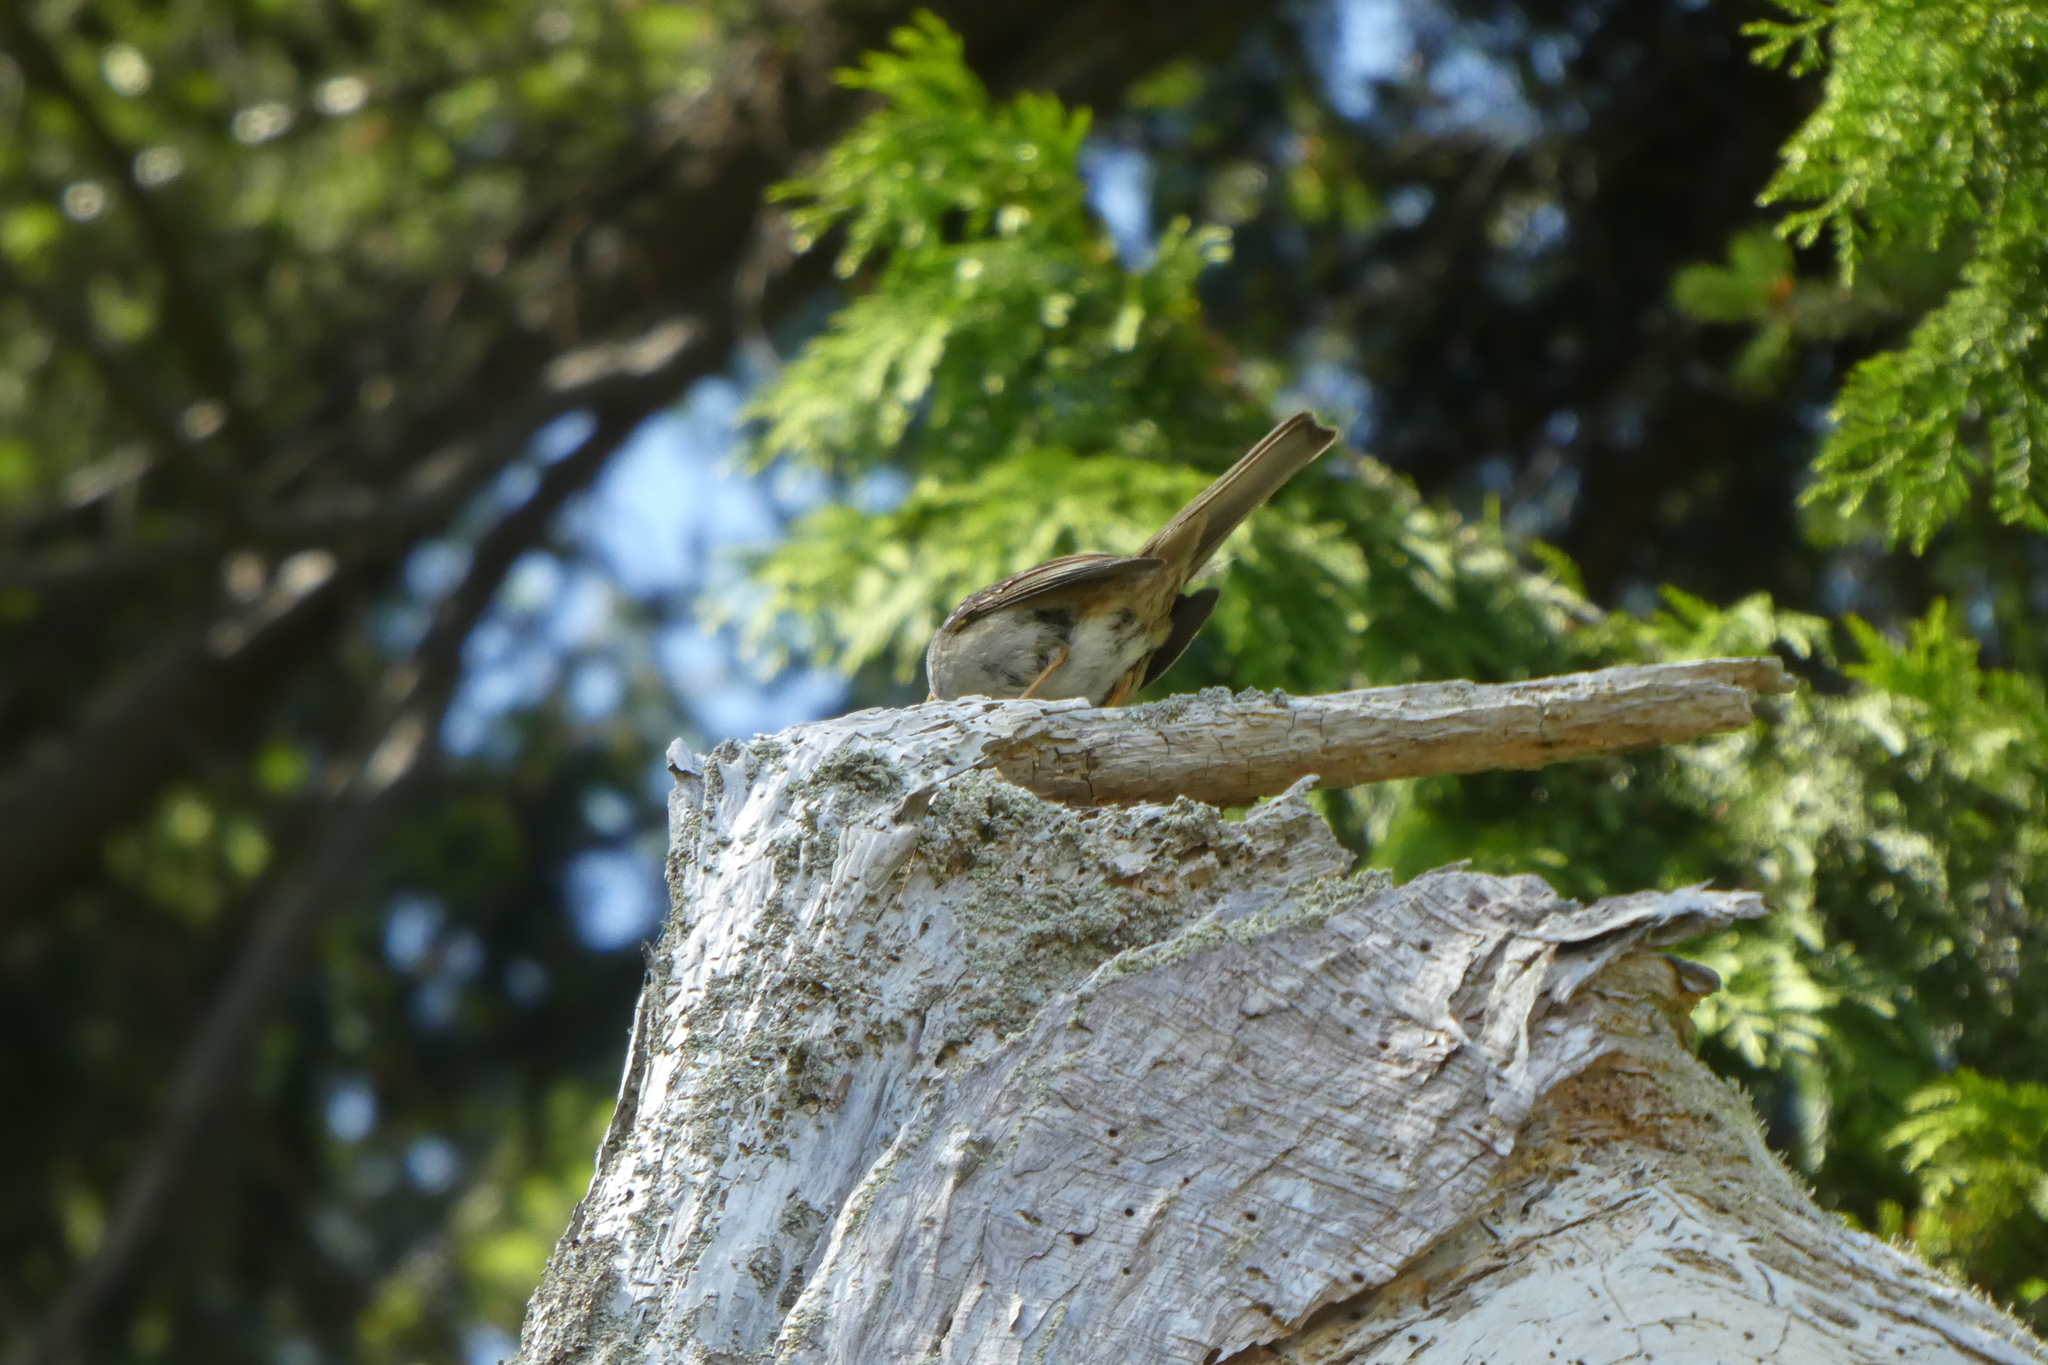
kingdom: Animalia
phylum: Chordata
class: Aves
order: Passeriformes
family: Passerellidae
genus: Zonotrichia
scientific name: Zonotrichia leucophrys
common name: White-crowned sparrow
